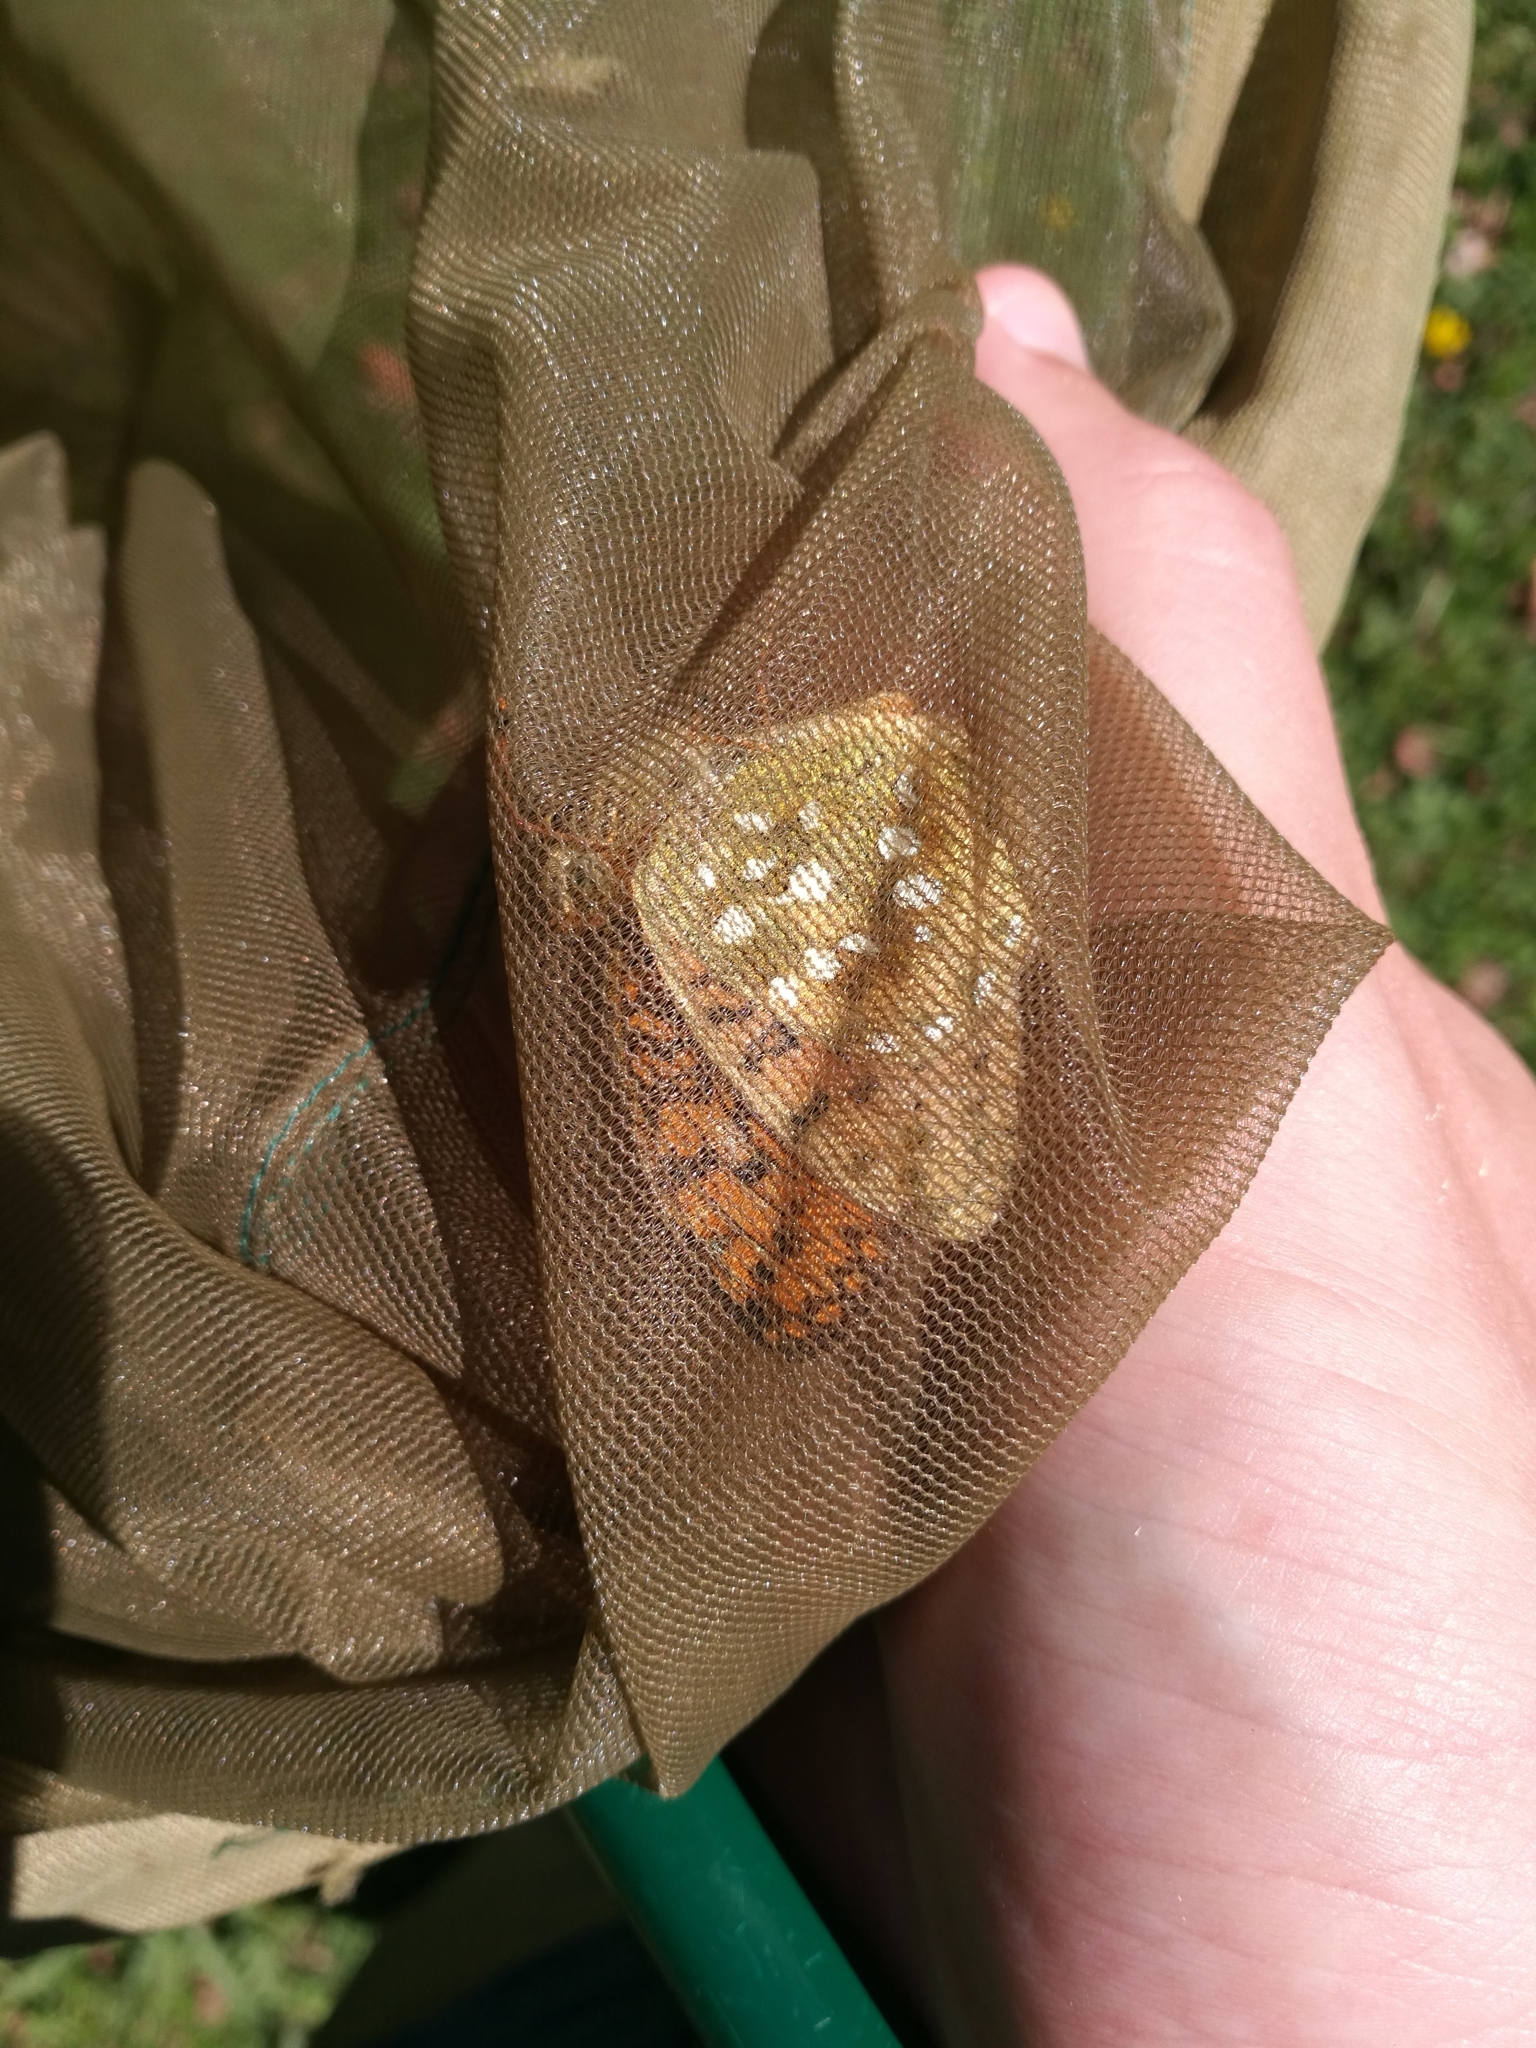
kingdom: Animalia
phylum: Arthropoda
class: Insecta
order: Lepidoptera
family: Nymphalidae
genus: Speyeria
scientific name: Speyeria aglaja
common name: Dark green fritillary
